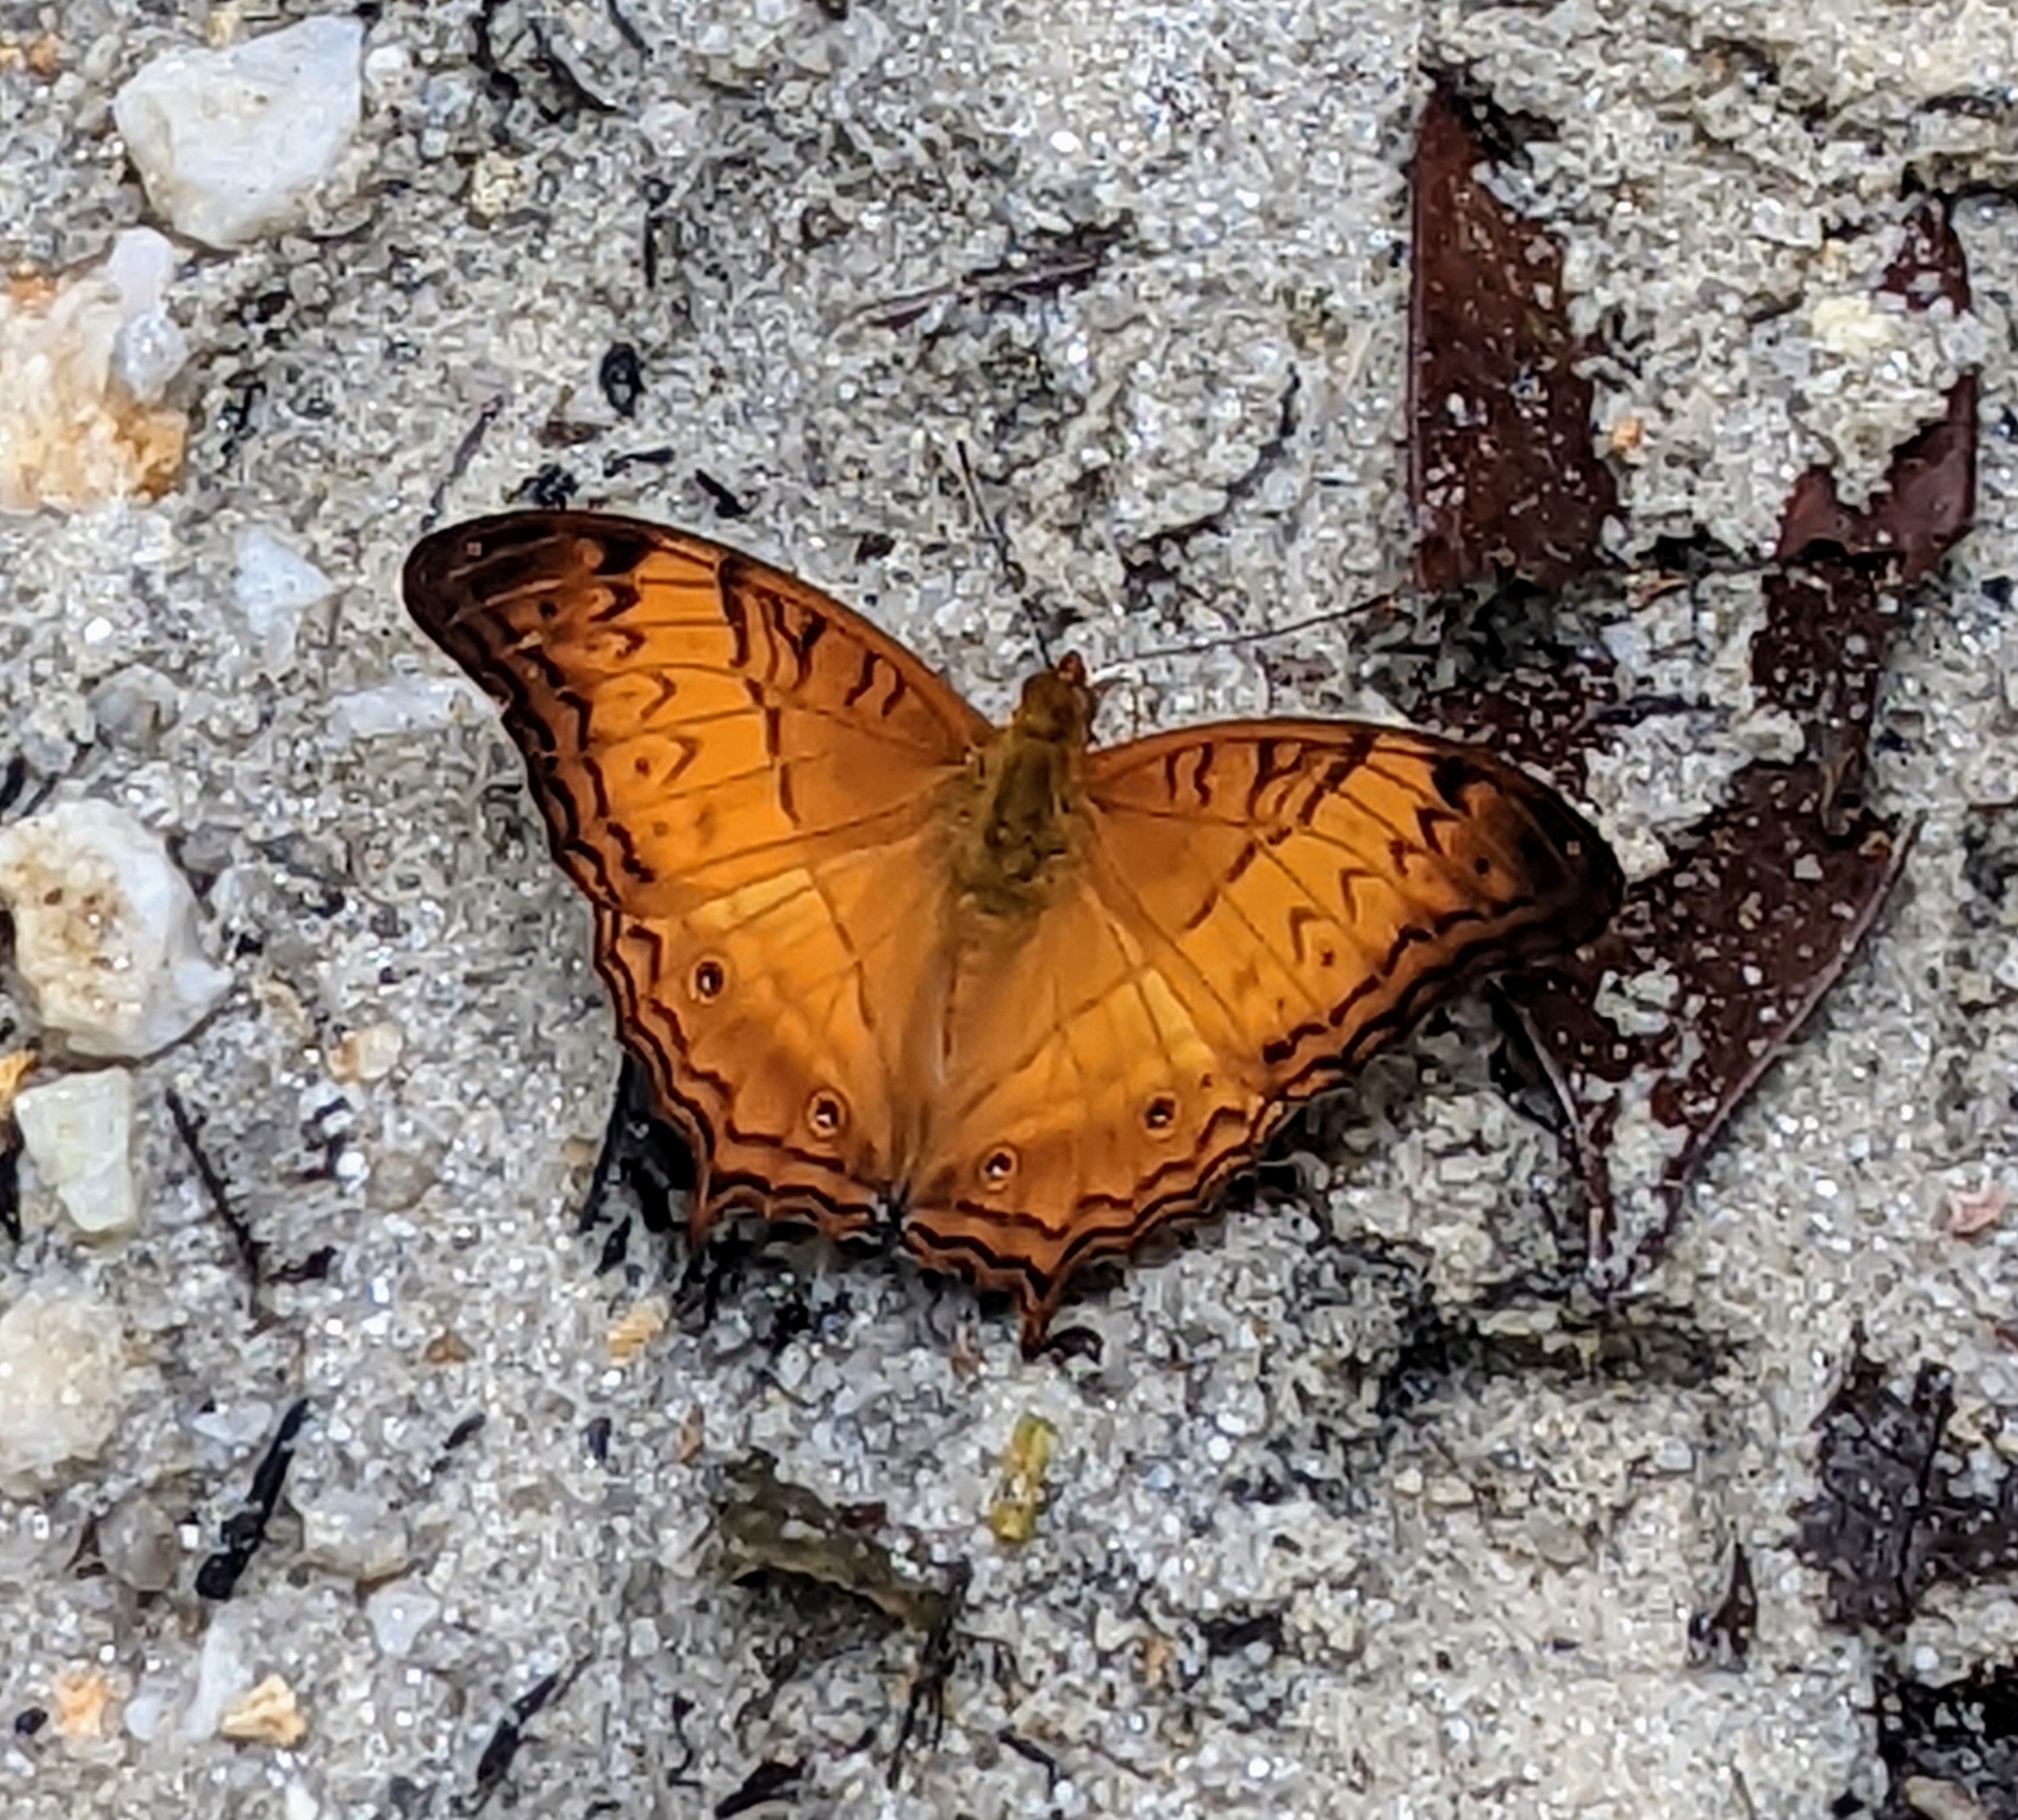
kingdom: Animalia
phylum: Arthropoda
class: Insecta
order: Lepidoptera
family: Nymphalidae
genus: Vindula
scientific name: Vindula deione
